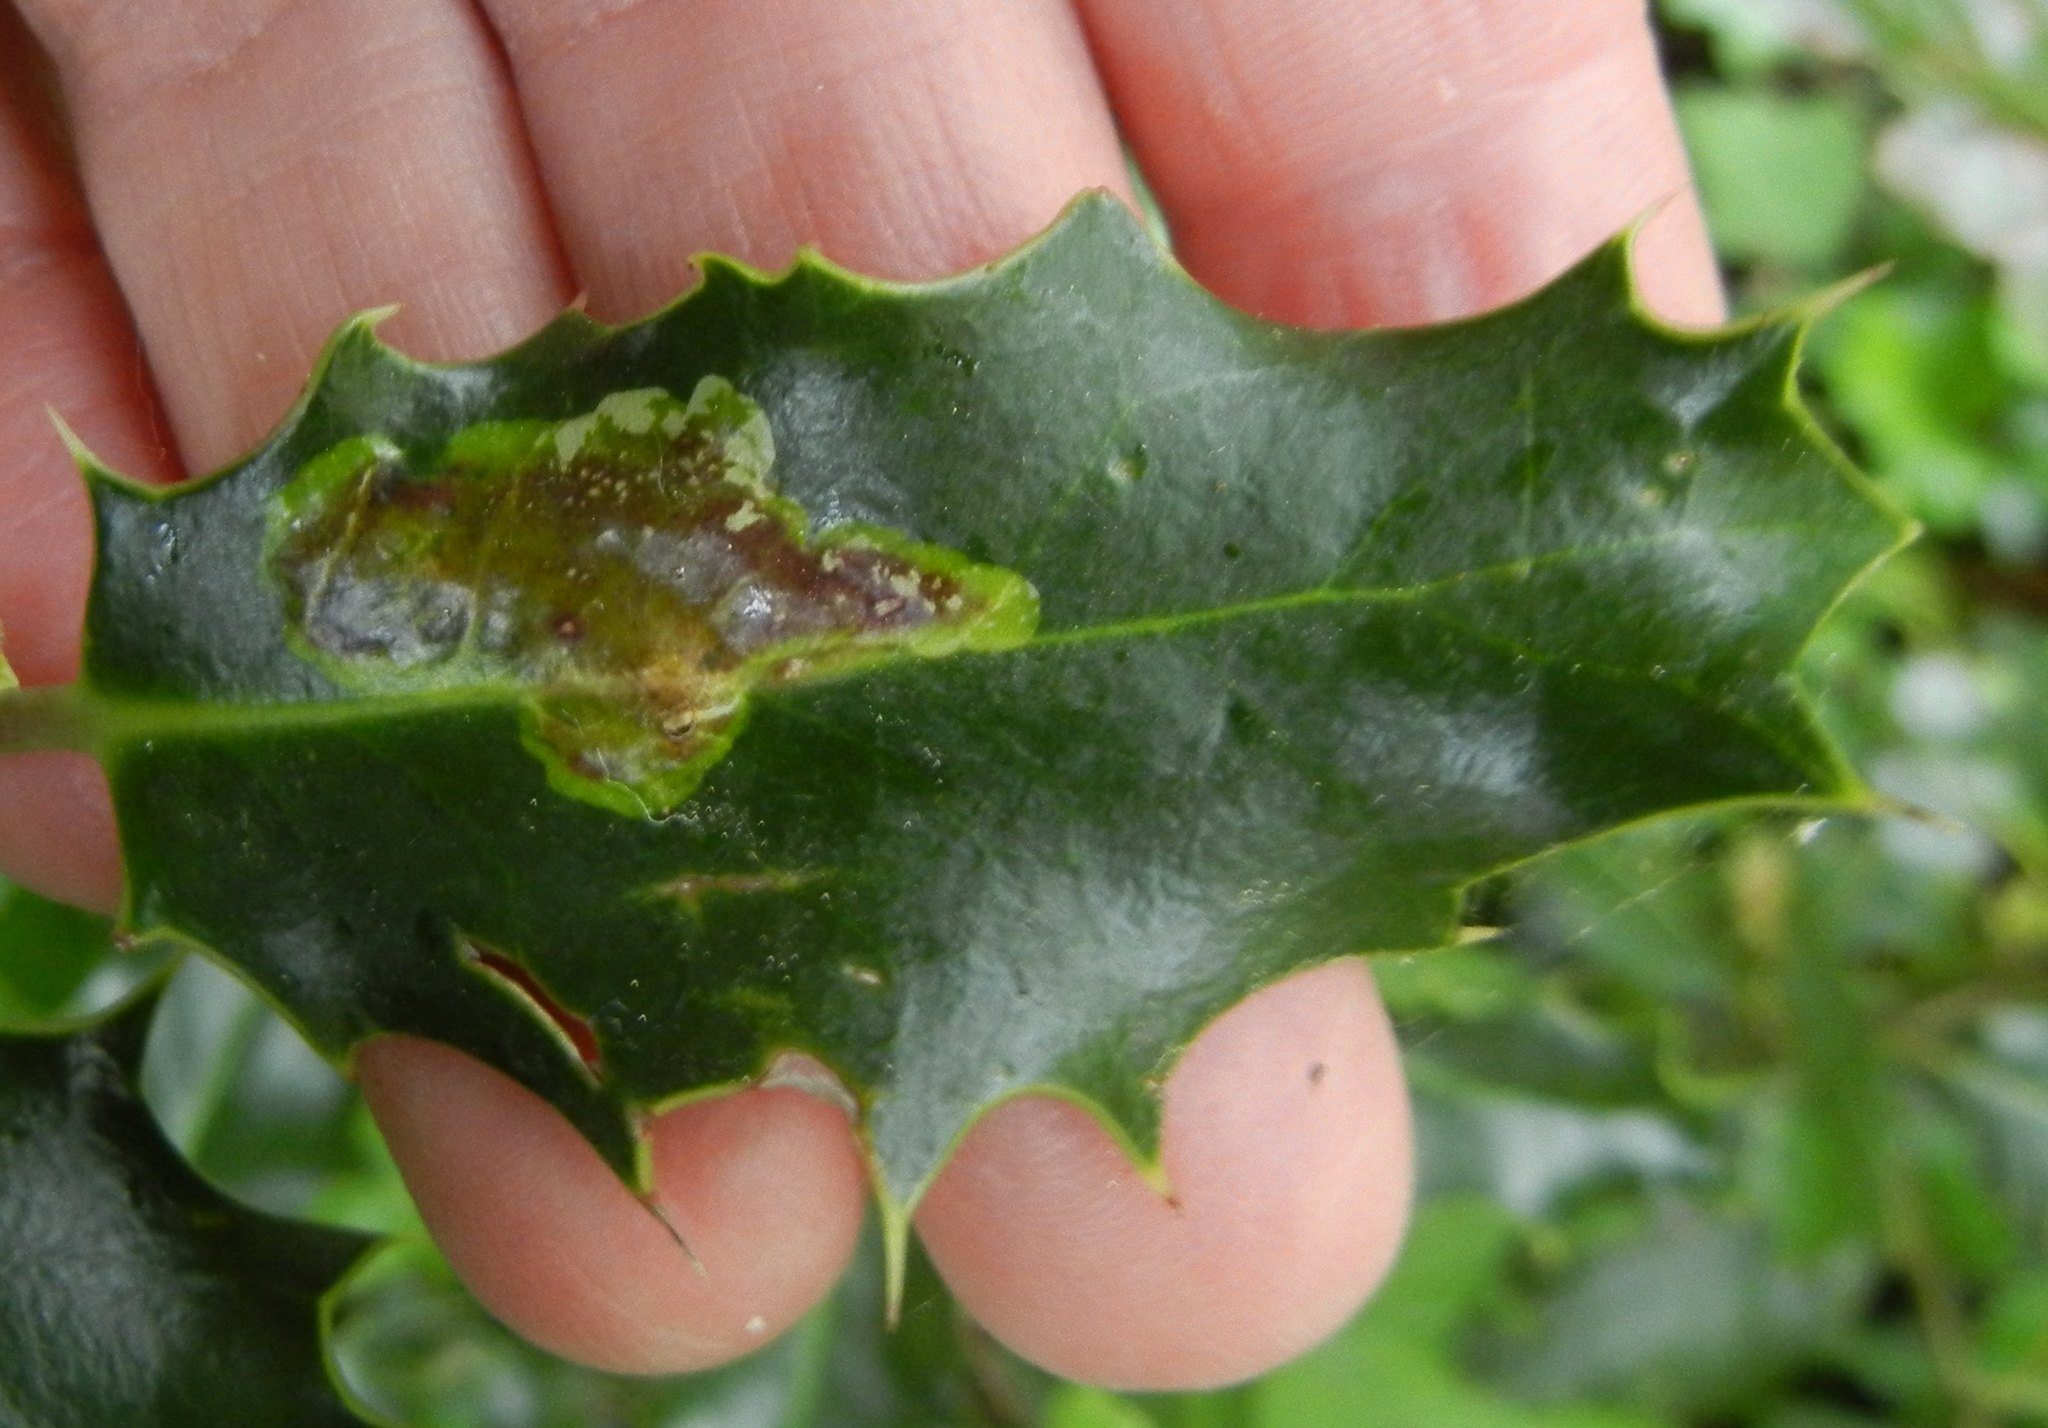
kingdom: Animalia
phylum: Arthropoda
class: Insecta
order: Diptera
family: Agromyzidae
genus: Phytomyza
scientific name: Phytomyza ilicis
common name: Holly leafminer
